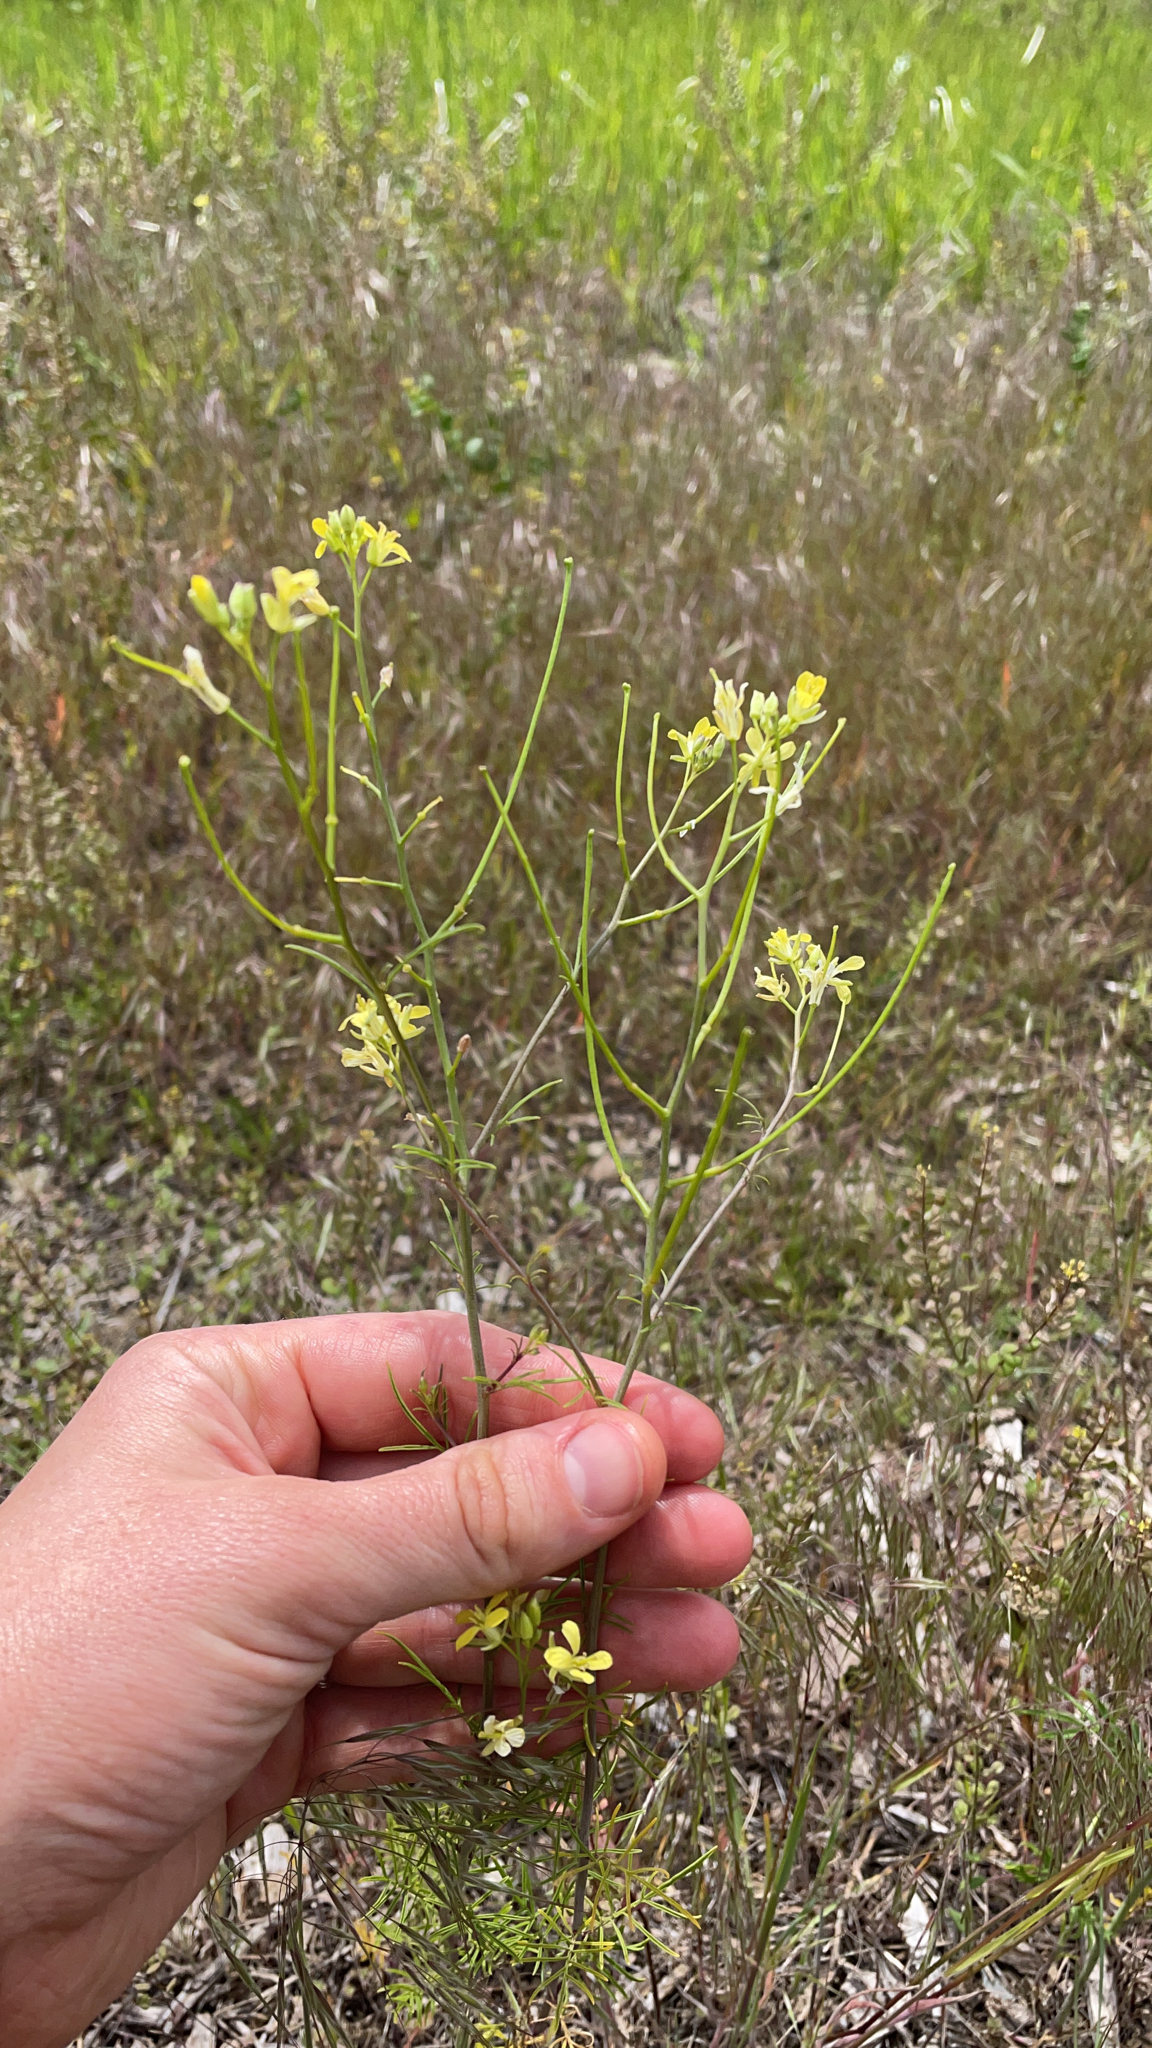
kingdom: Plantae
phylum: Tracheophyta
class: Magnoliopsida
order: Brassicales
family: Brassicaceae
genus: Sisymbrium
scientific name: Sisymbrium altissimum
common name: Tall rocket
